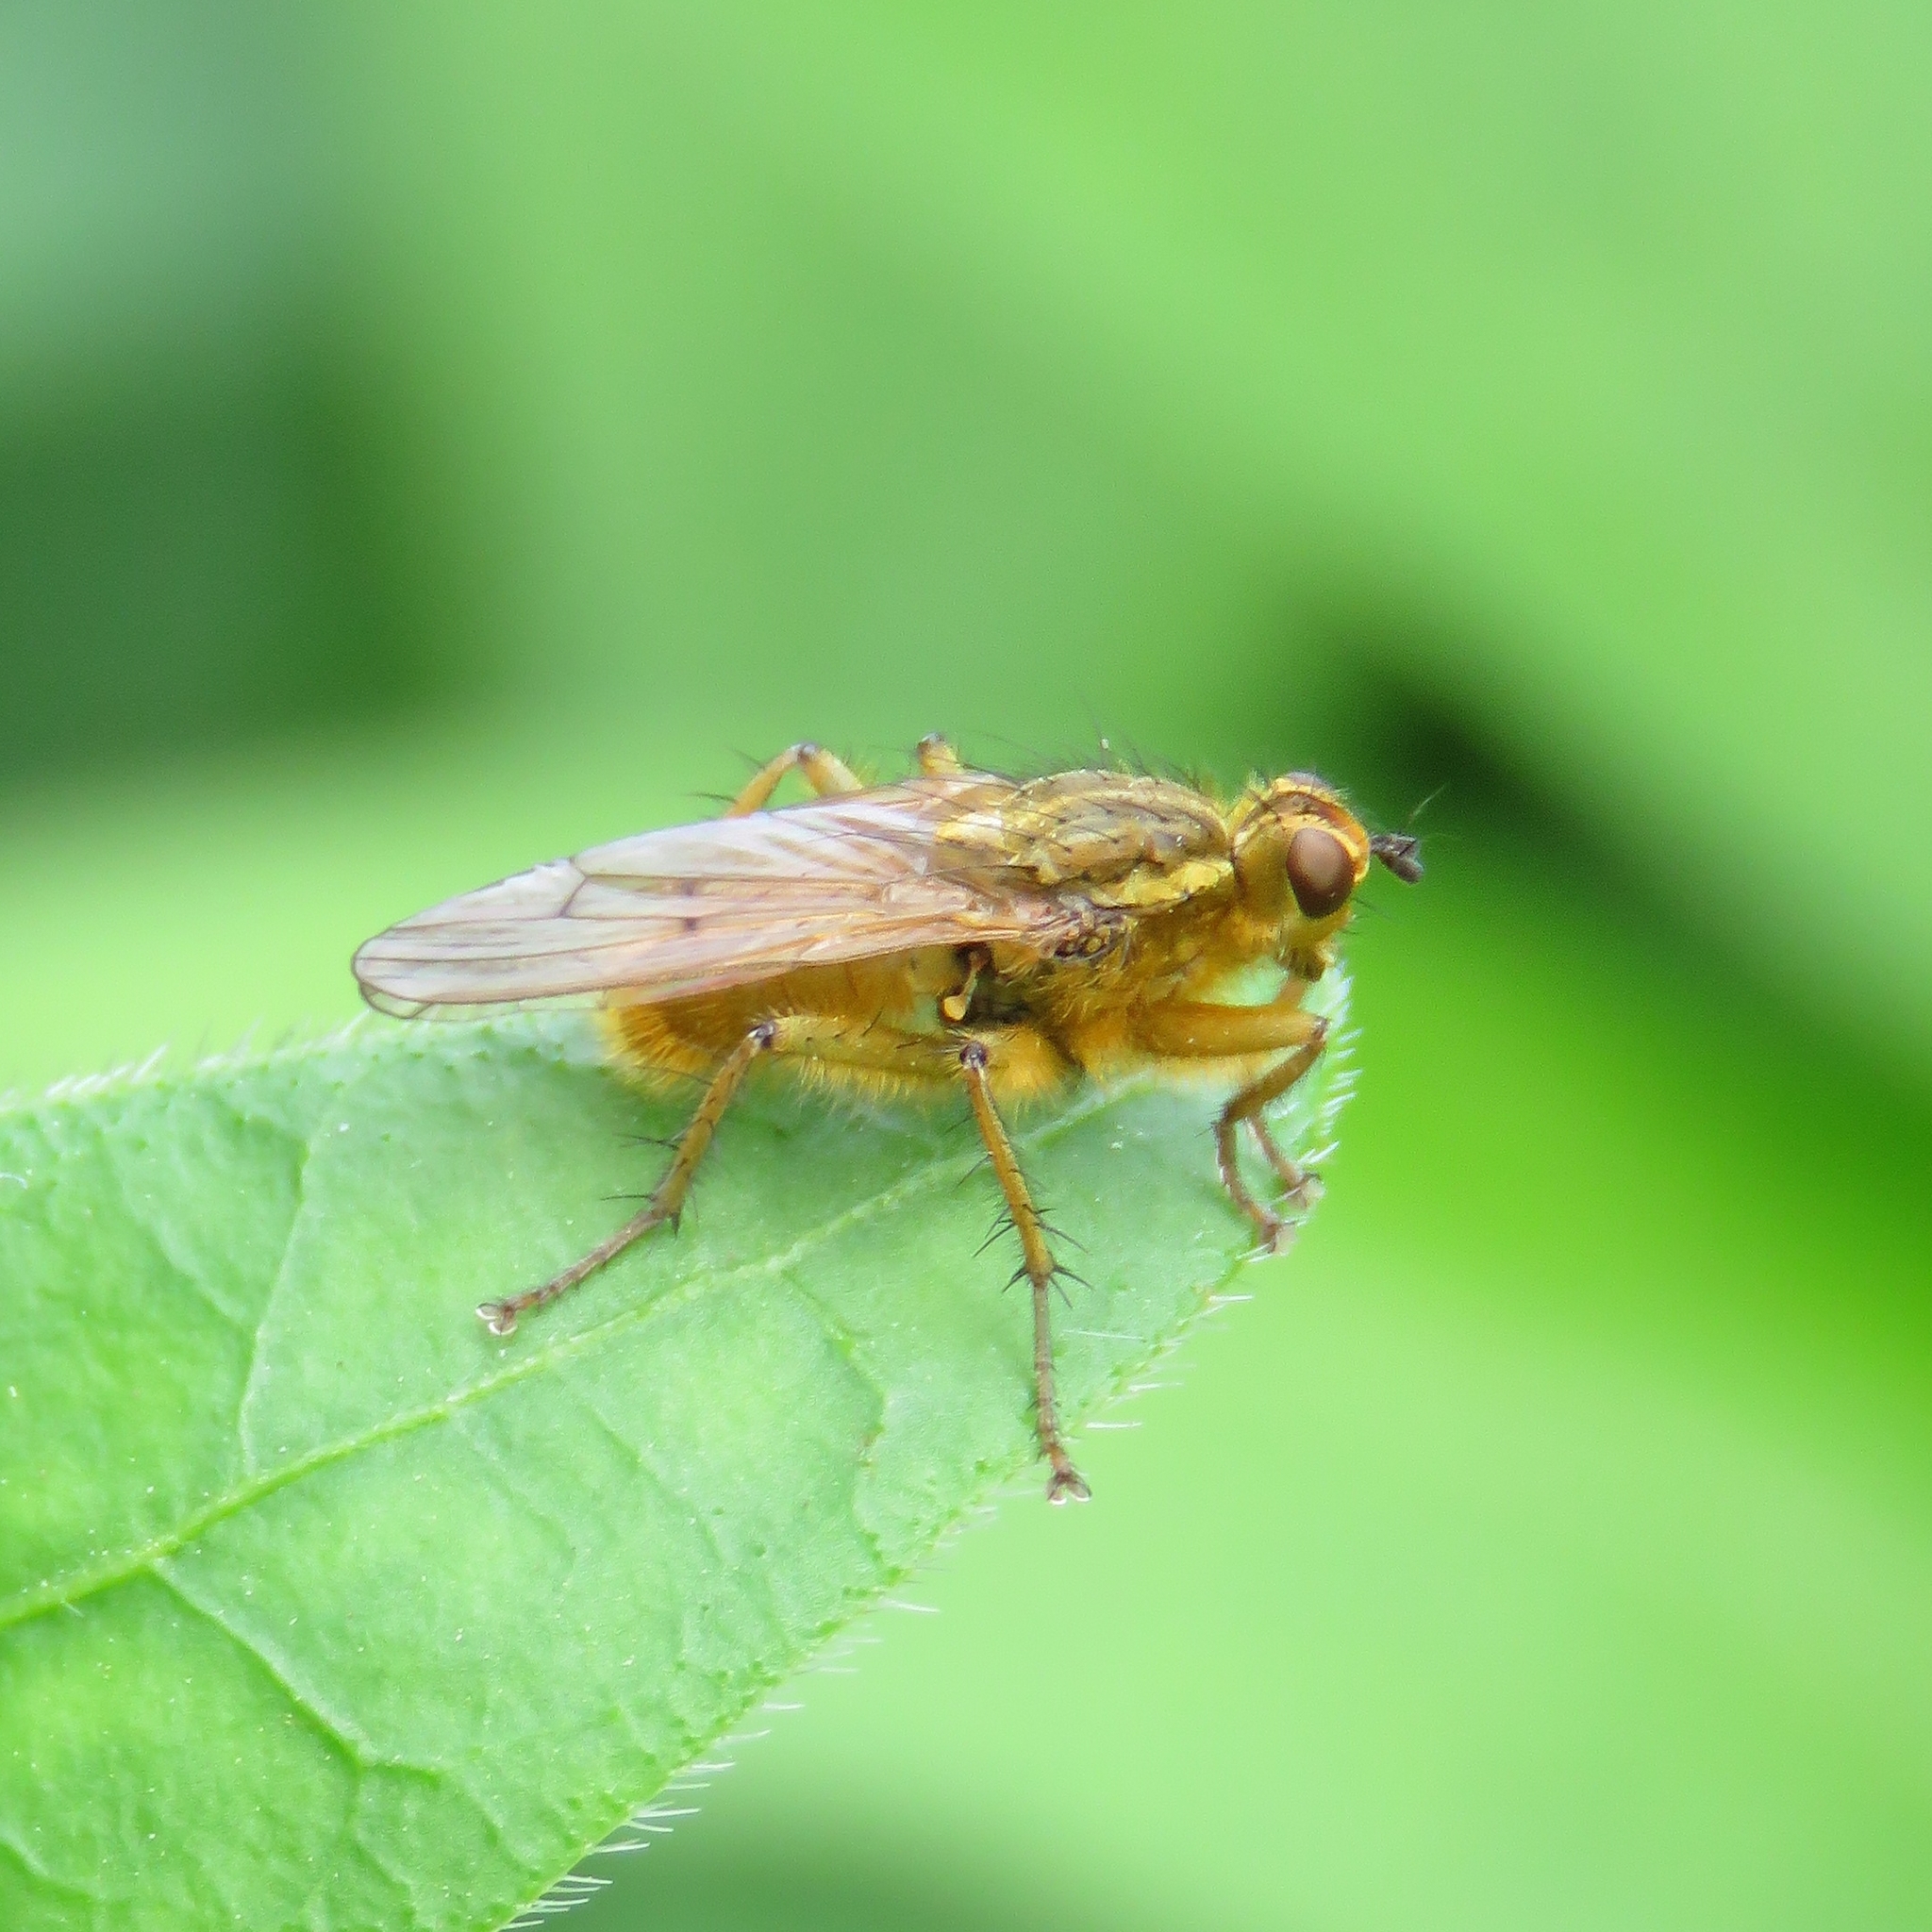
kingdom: Animalia
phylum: Arthropoda
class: Insecta
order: Diptera
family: Scathophagidae
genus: Scathophaga
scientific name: Scathophaga stercoraria
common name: Yellow dung fly
